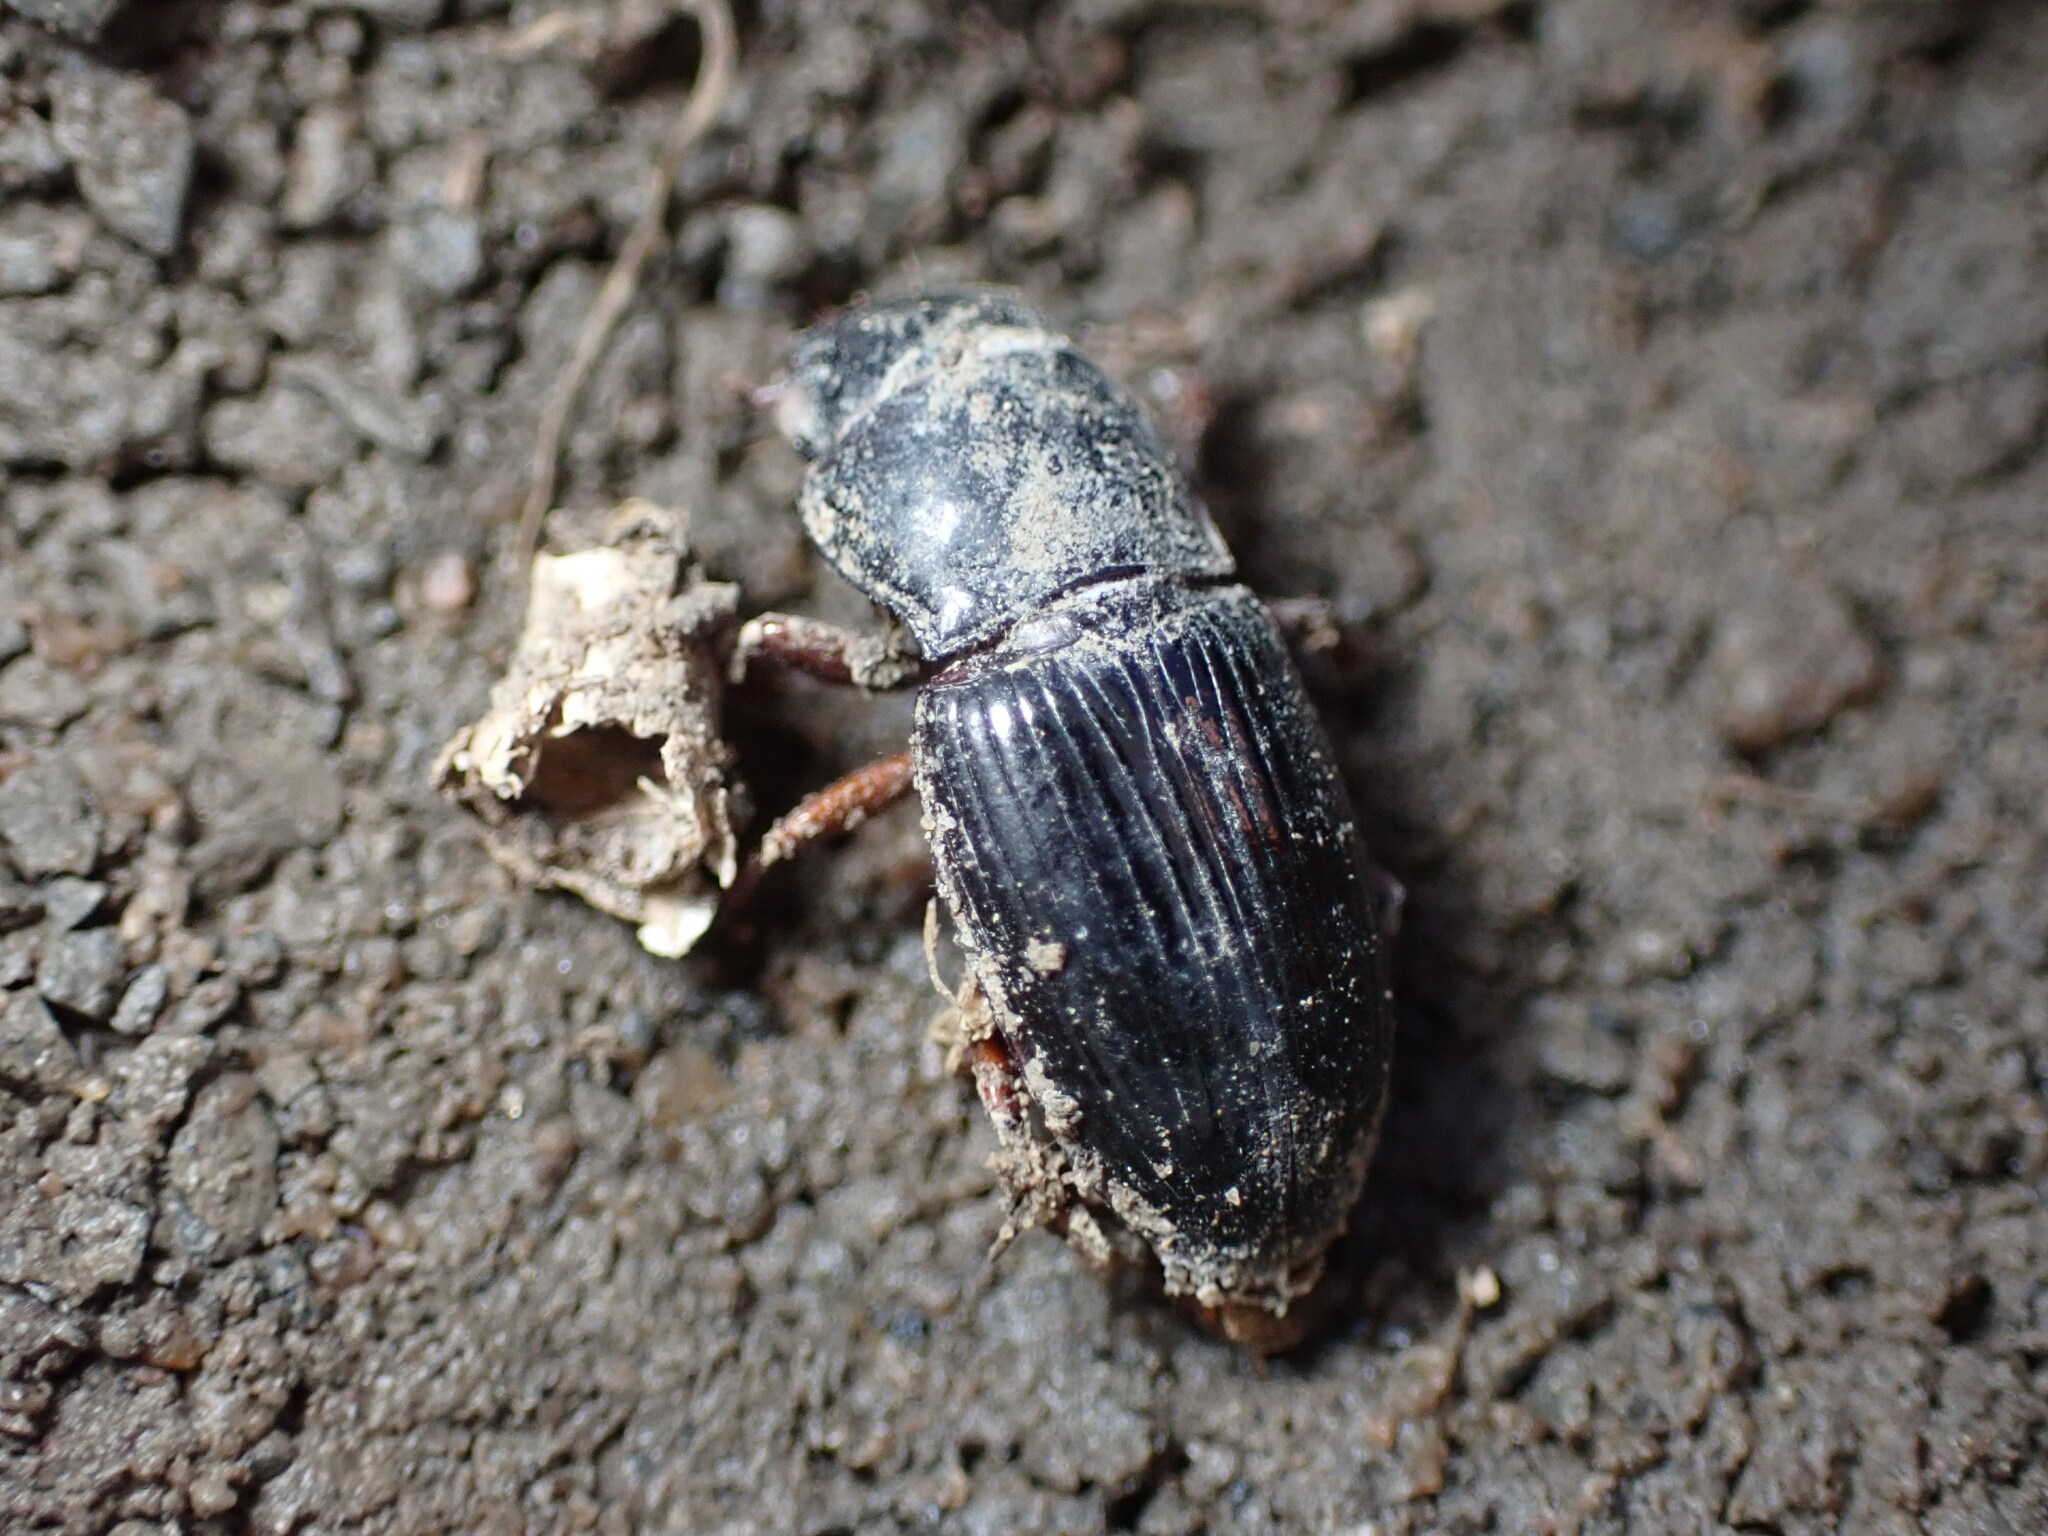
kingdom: Animalia
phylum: Arthropoda
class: Insecta
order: Coleoptera
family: Carabidae
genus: Cratacanthus
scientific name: Cratacanthus dubius
